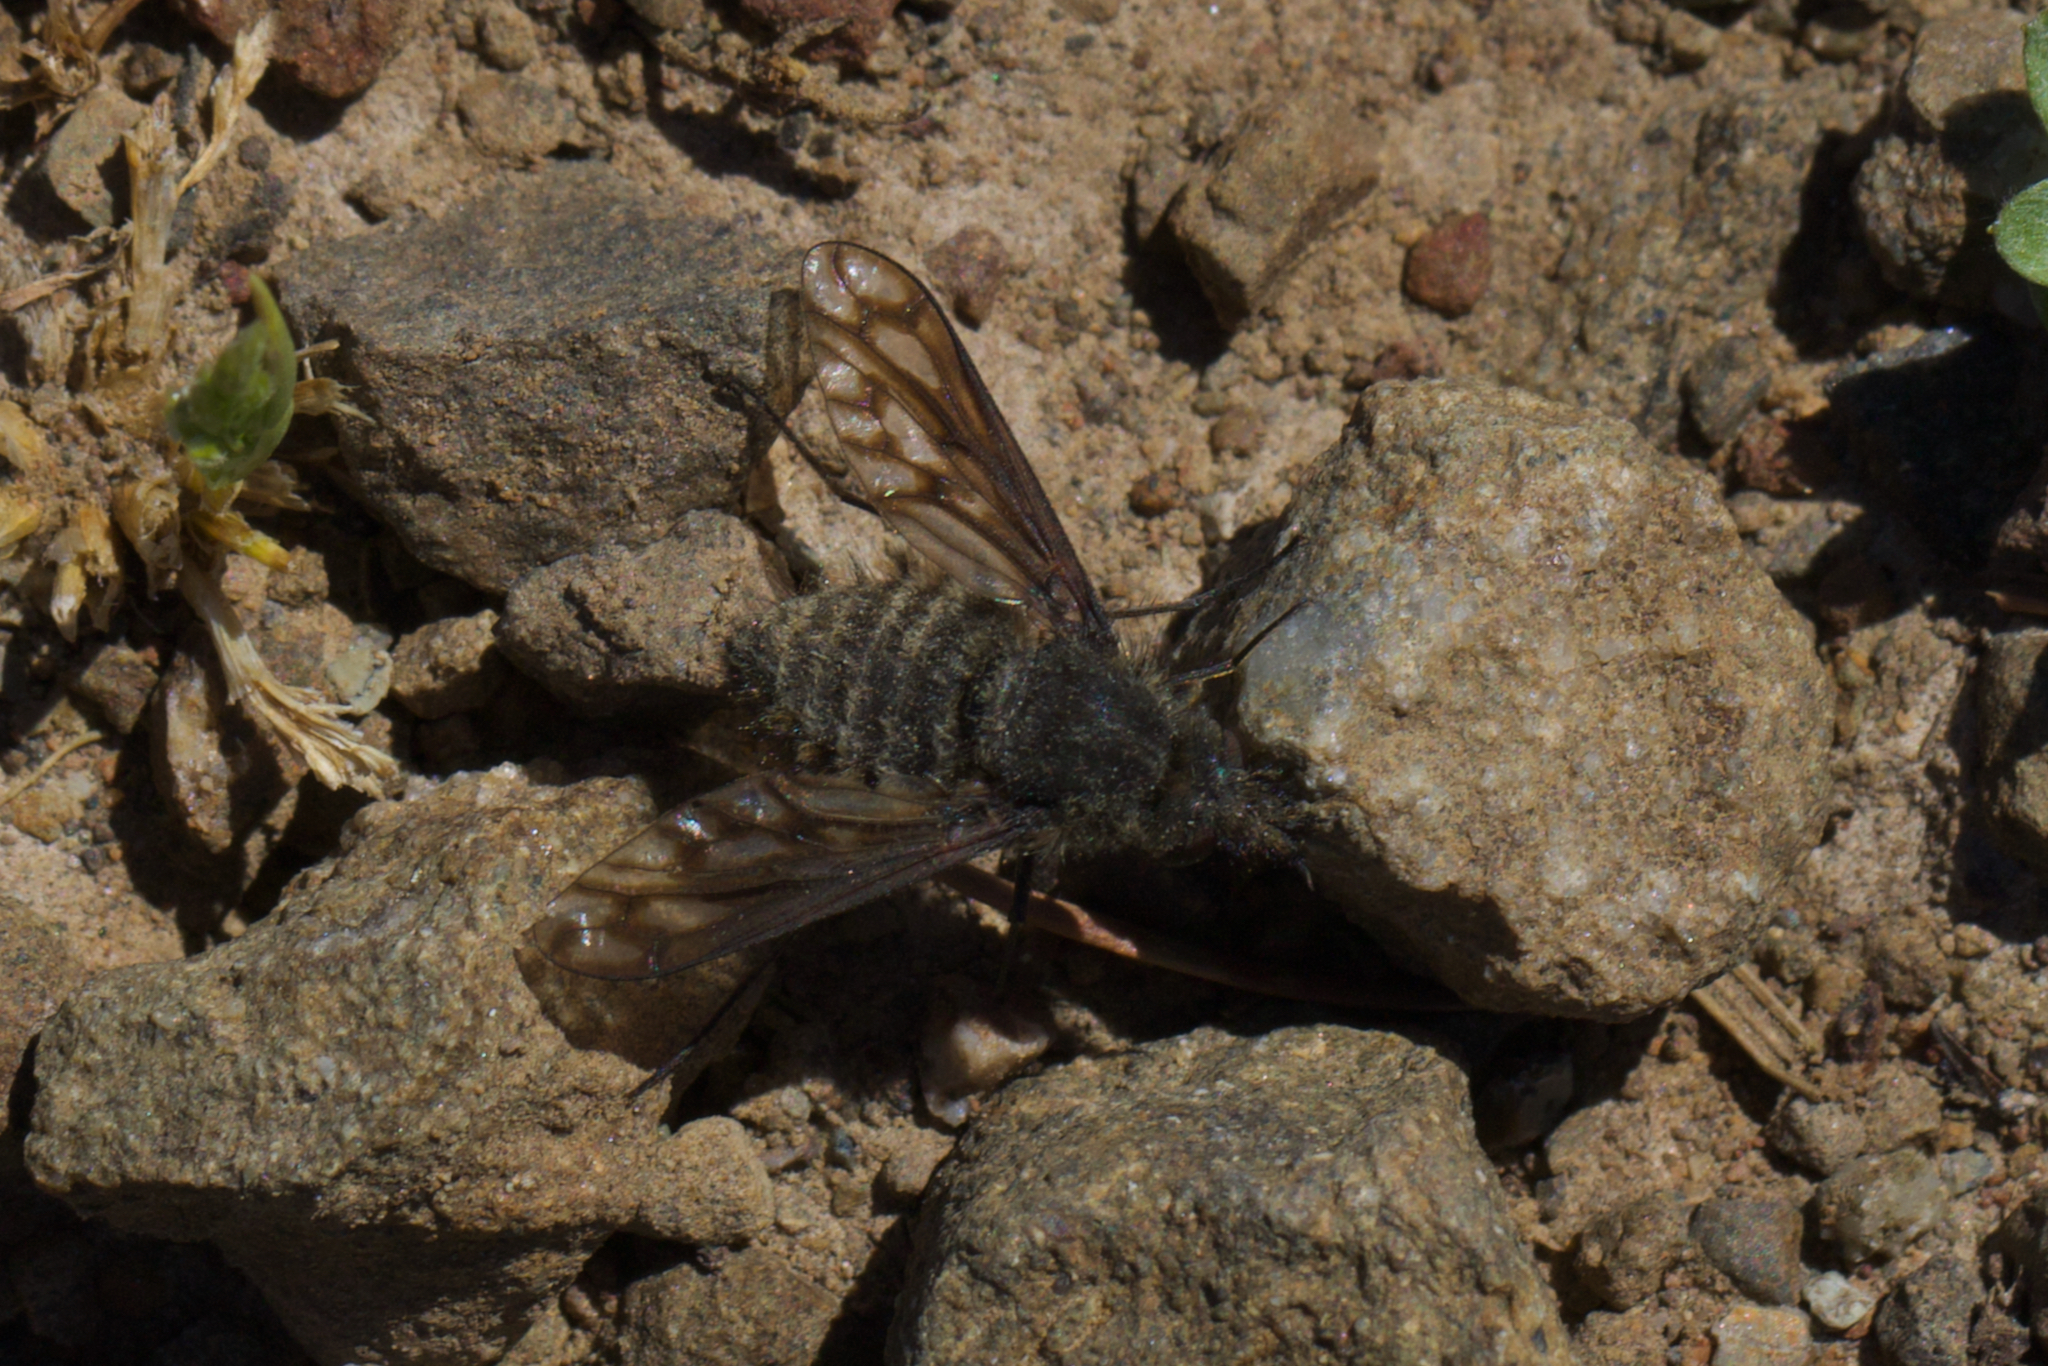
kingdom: Animalia
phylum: Arthropoda
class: Insecta
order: Diptera
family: Bombyliidae
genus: Conophorus
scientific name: Conophorus fenestratus
